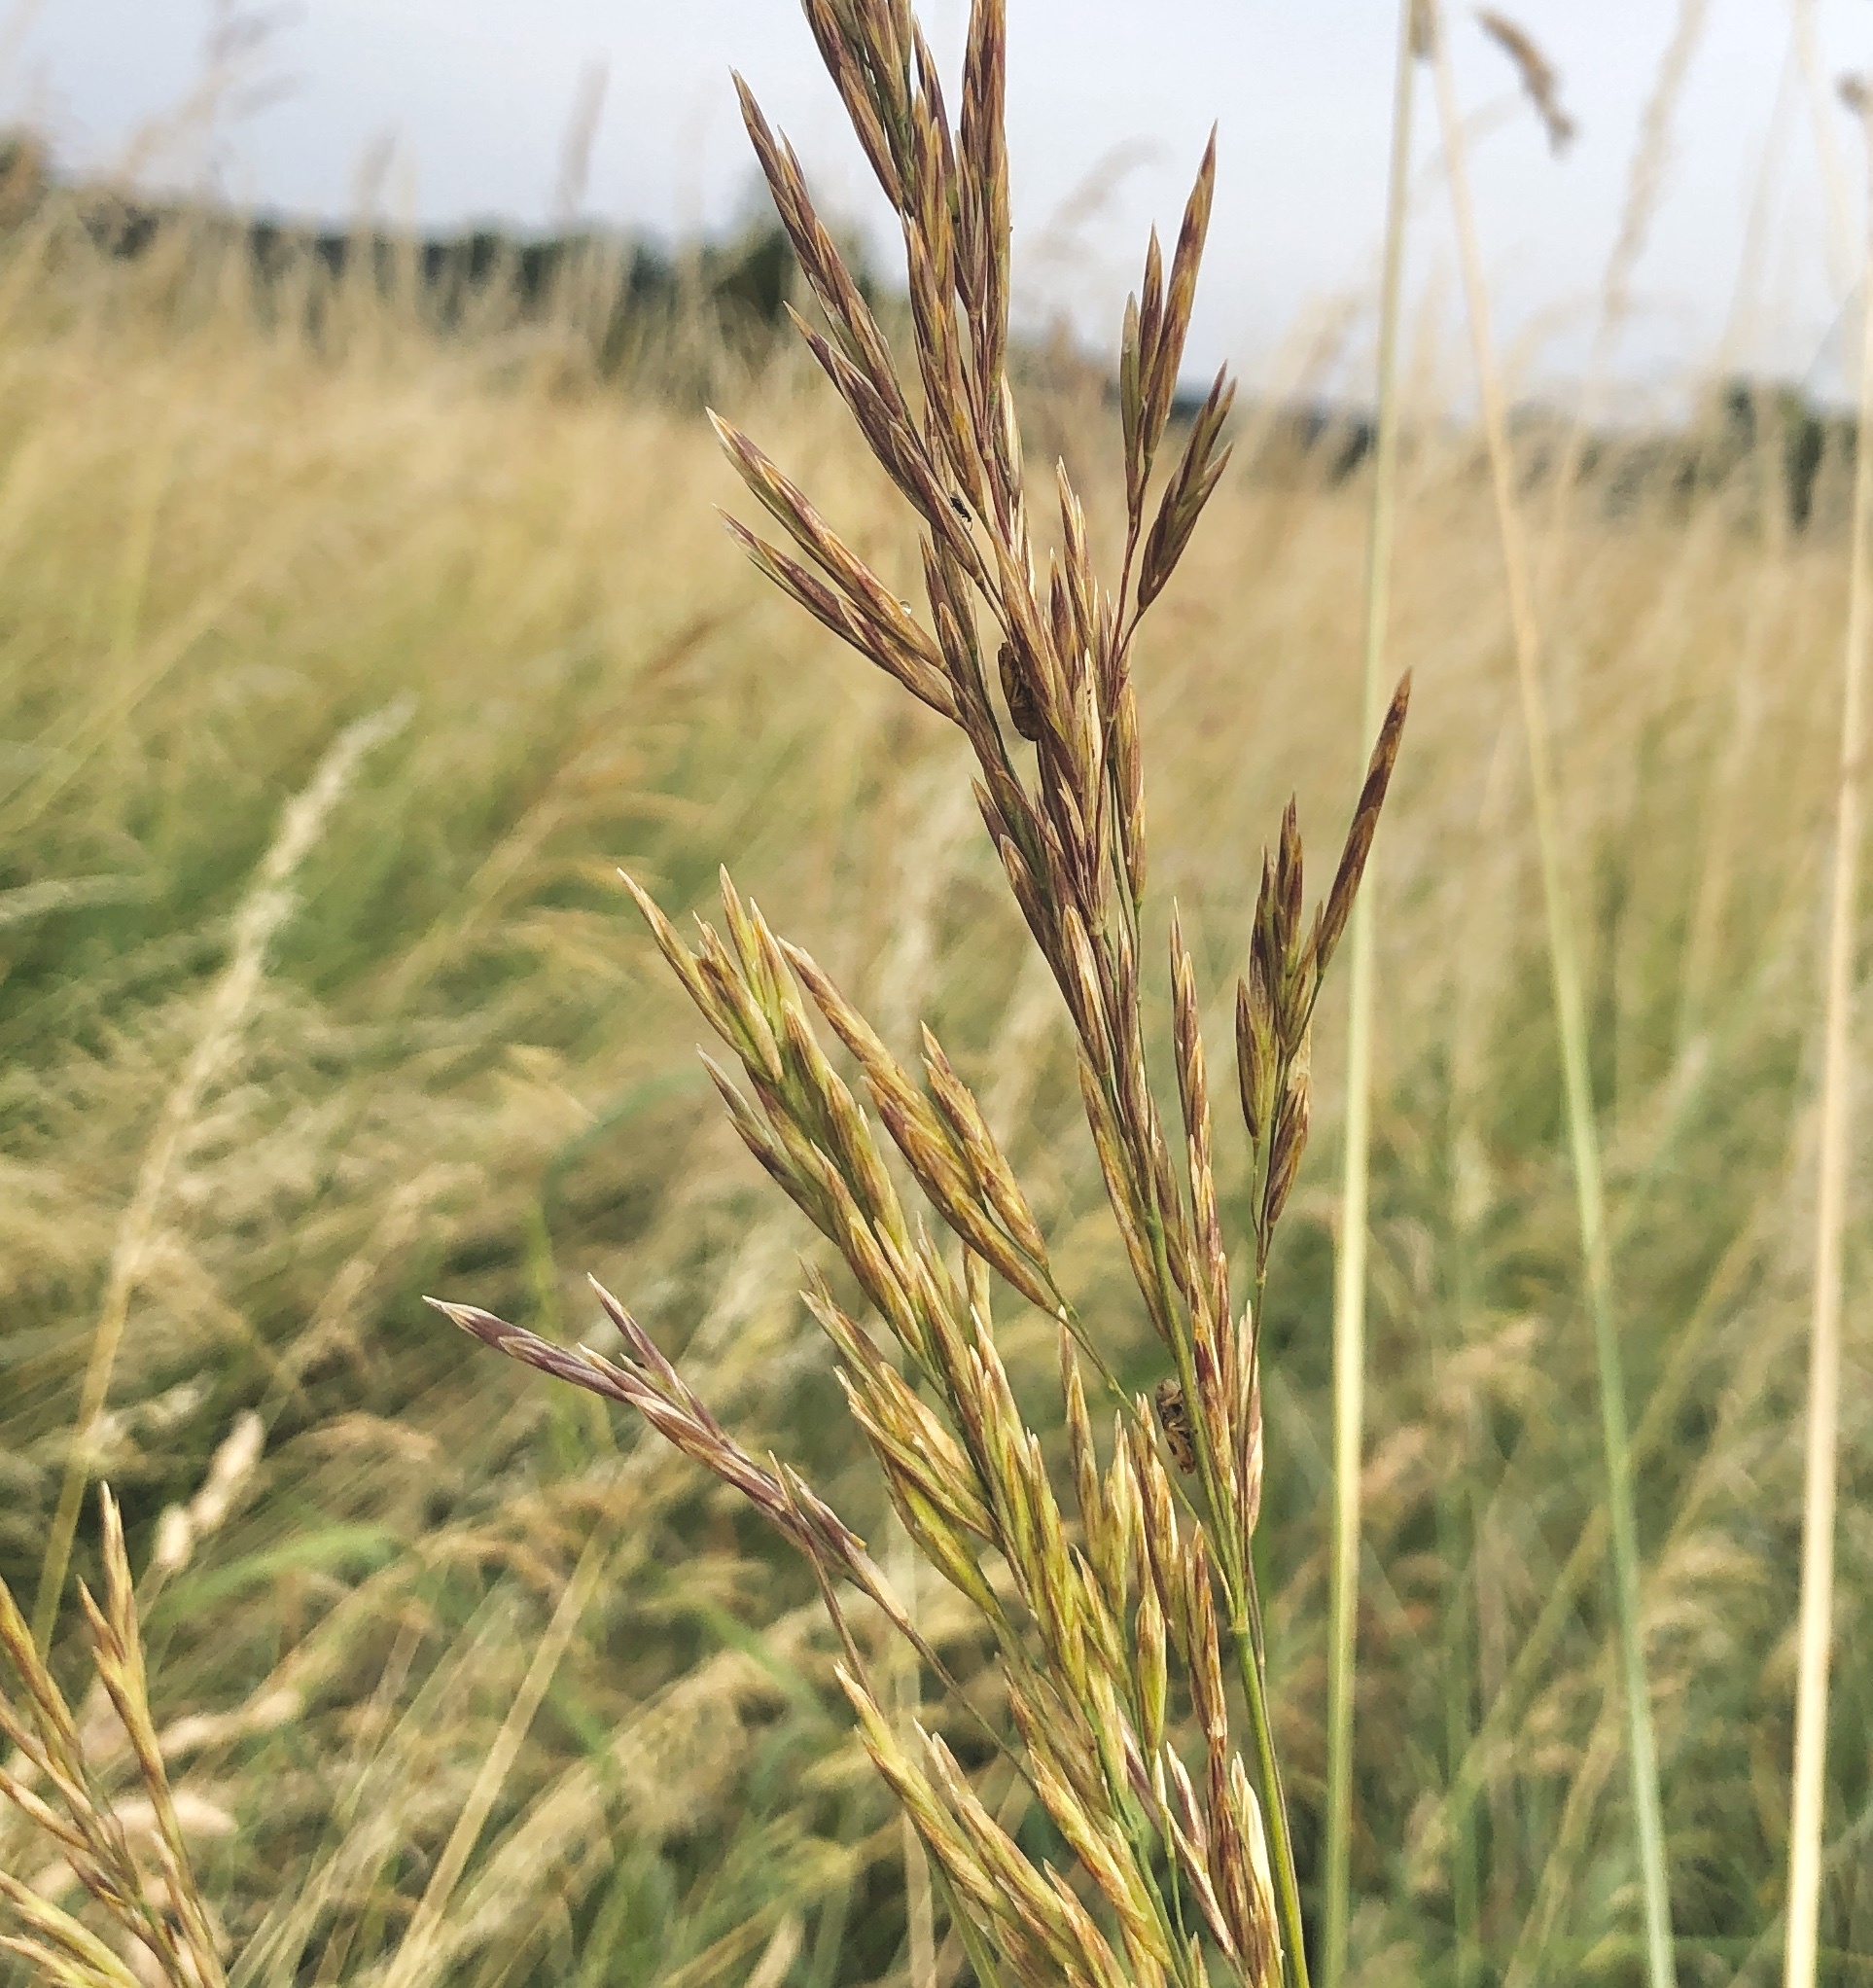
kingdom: Plantae
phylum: Tracheophyta
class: Liliopsida
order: Poales
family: Poaceae
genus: Bromus
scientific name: Bromus inermis
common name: Smooth brome
